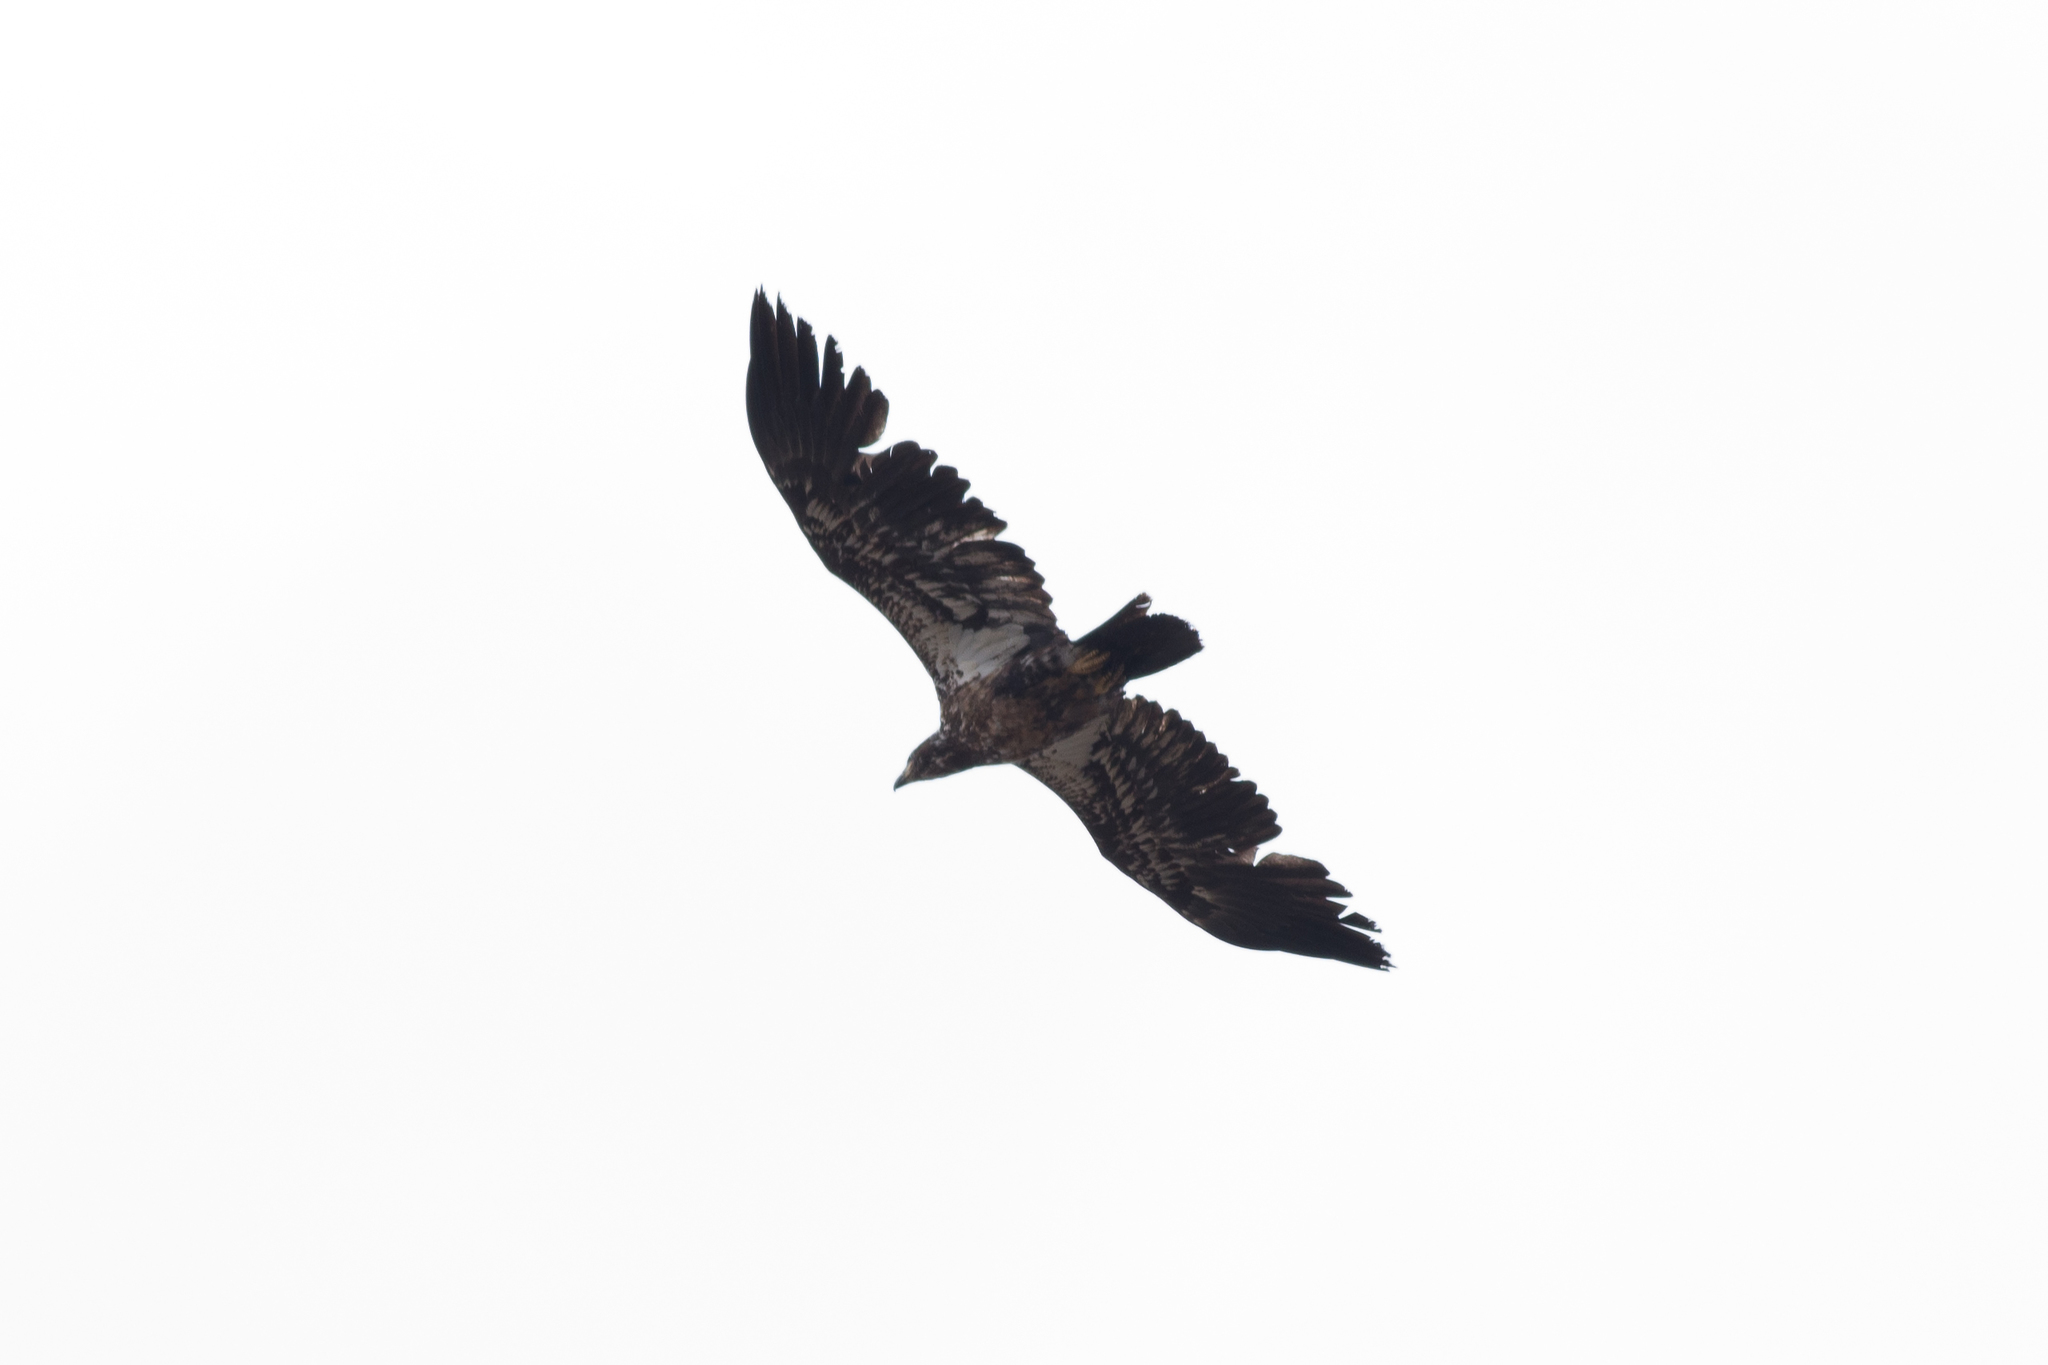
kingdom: Animalia
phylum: Chordata
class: Aves
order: Accipitriformes
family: Accipitridae
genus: Haliaeetus
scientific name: Haliaeetus leucocephalus
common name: Bald eagle
